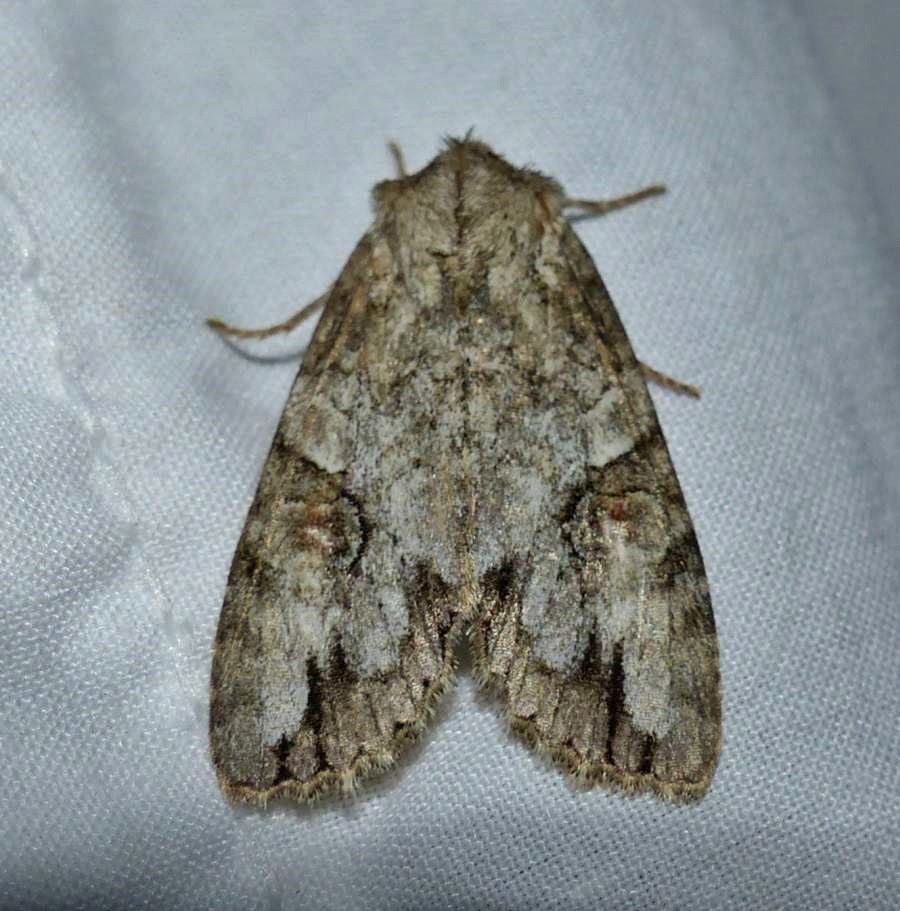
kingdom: Animalia
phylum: Arthropoda
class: Insecta
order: Lepidoptera
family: Noctuidae
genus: Achatia
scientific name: Achatia latex
